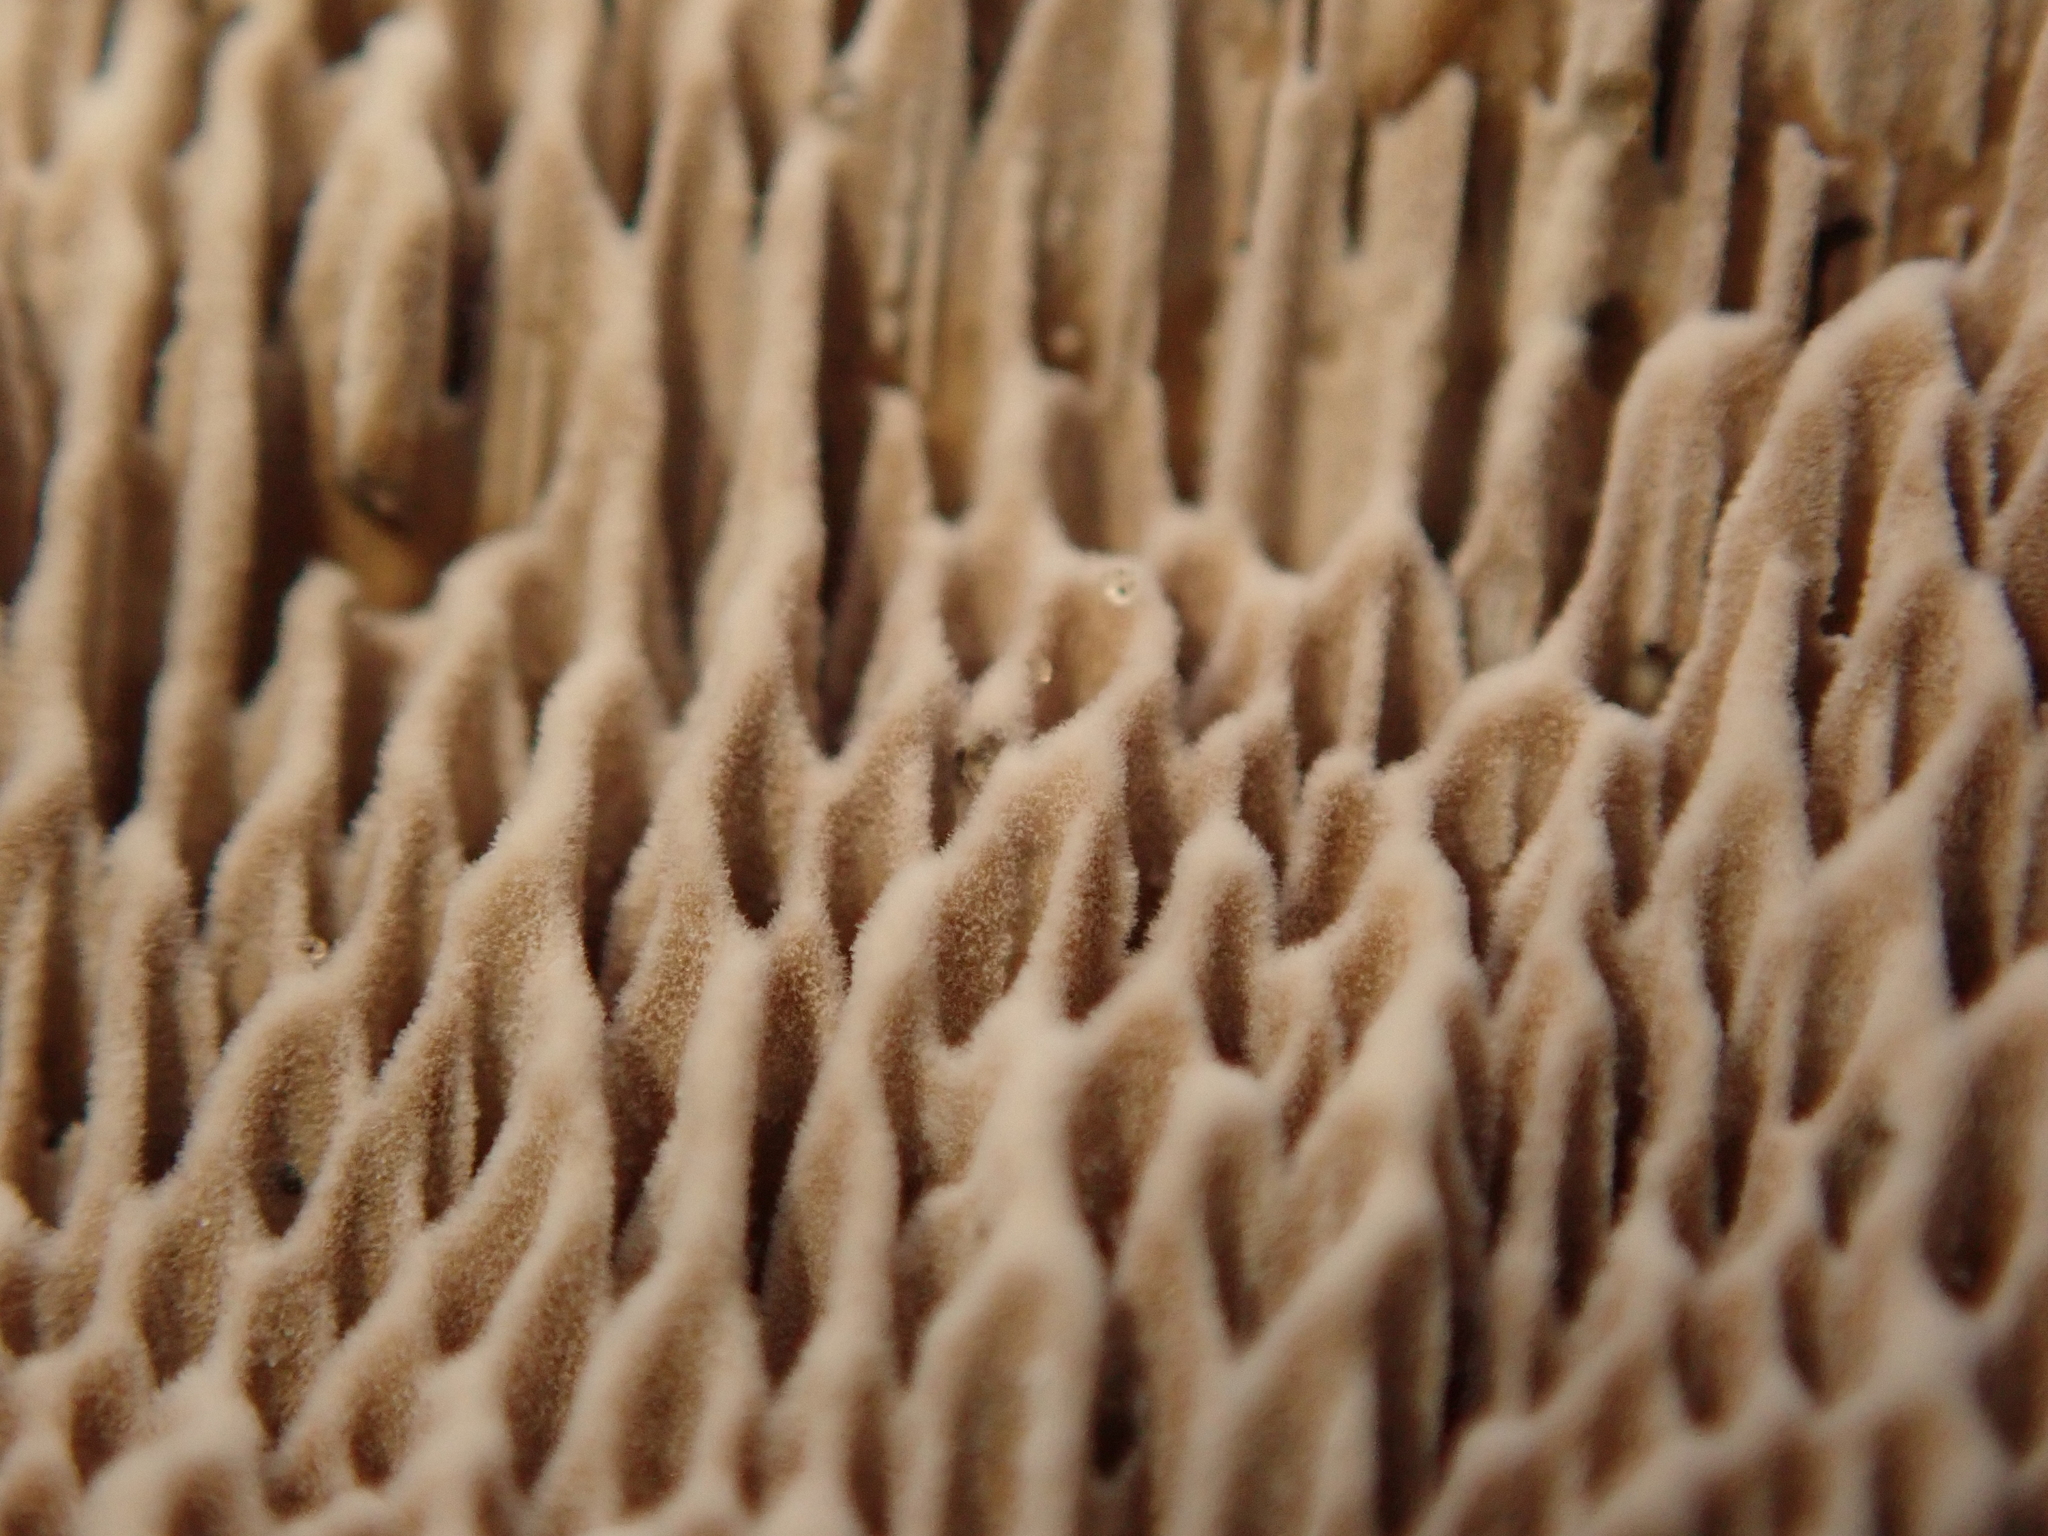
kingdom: Fungi
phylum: Basidiomycota
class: Agaricomycetes
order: Polyporales
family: Polyporaceae
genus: Podofomes
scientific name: Podofomes mollis
